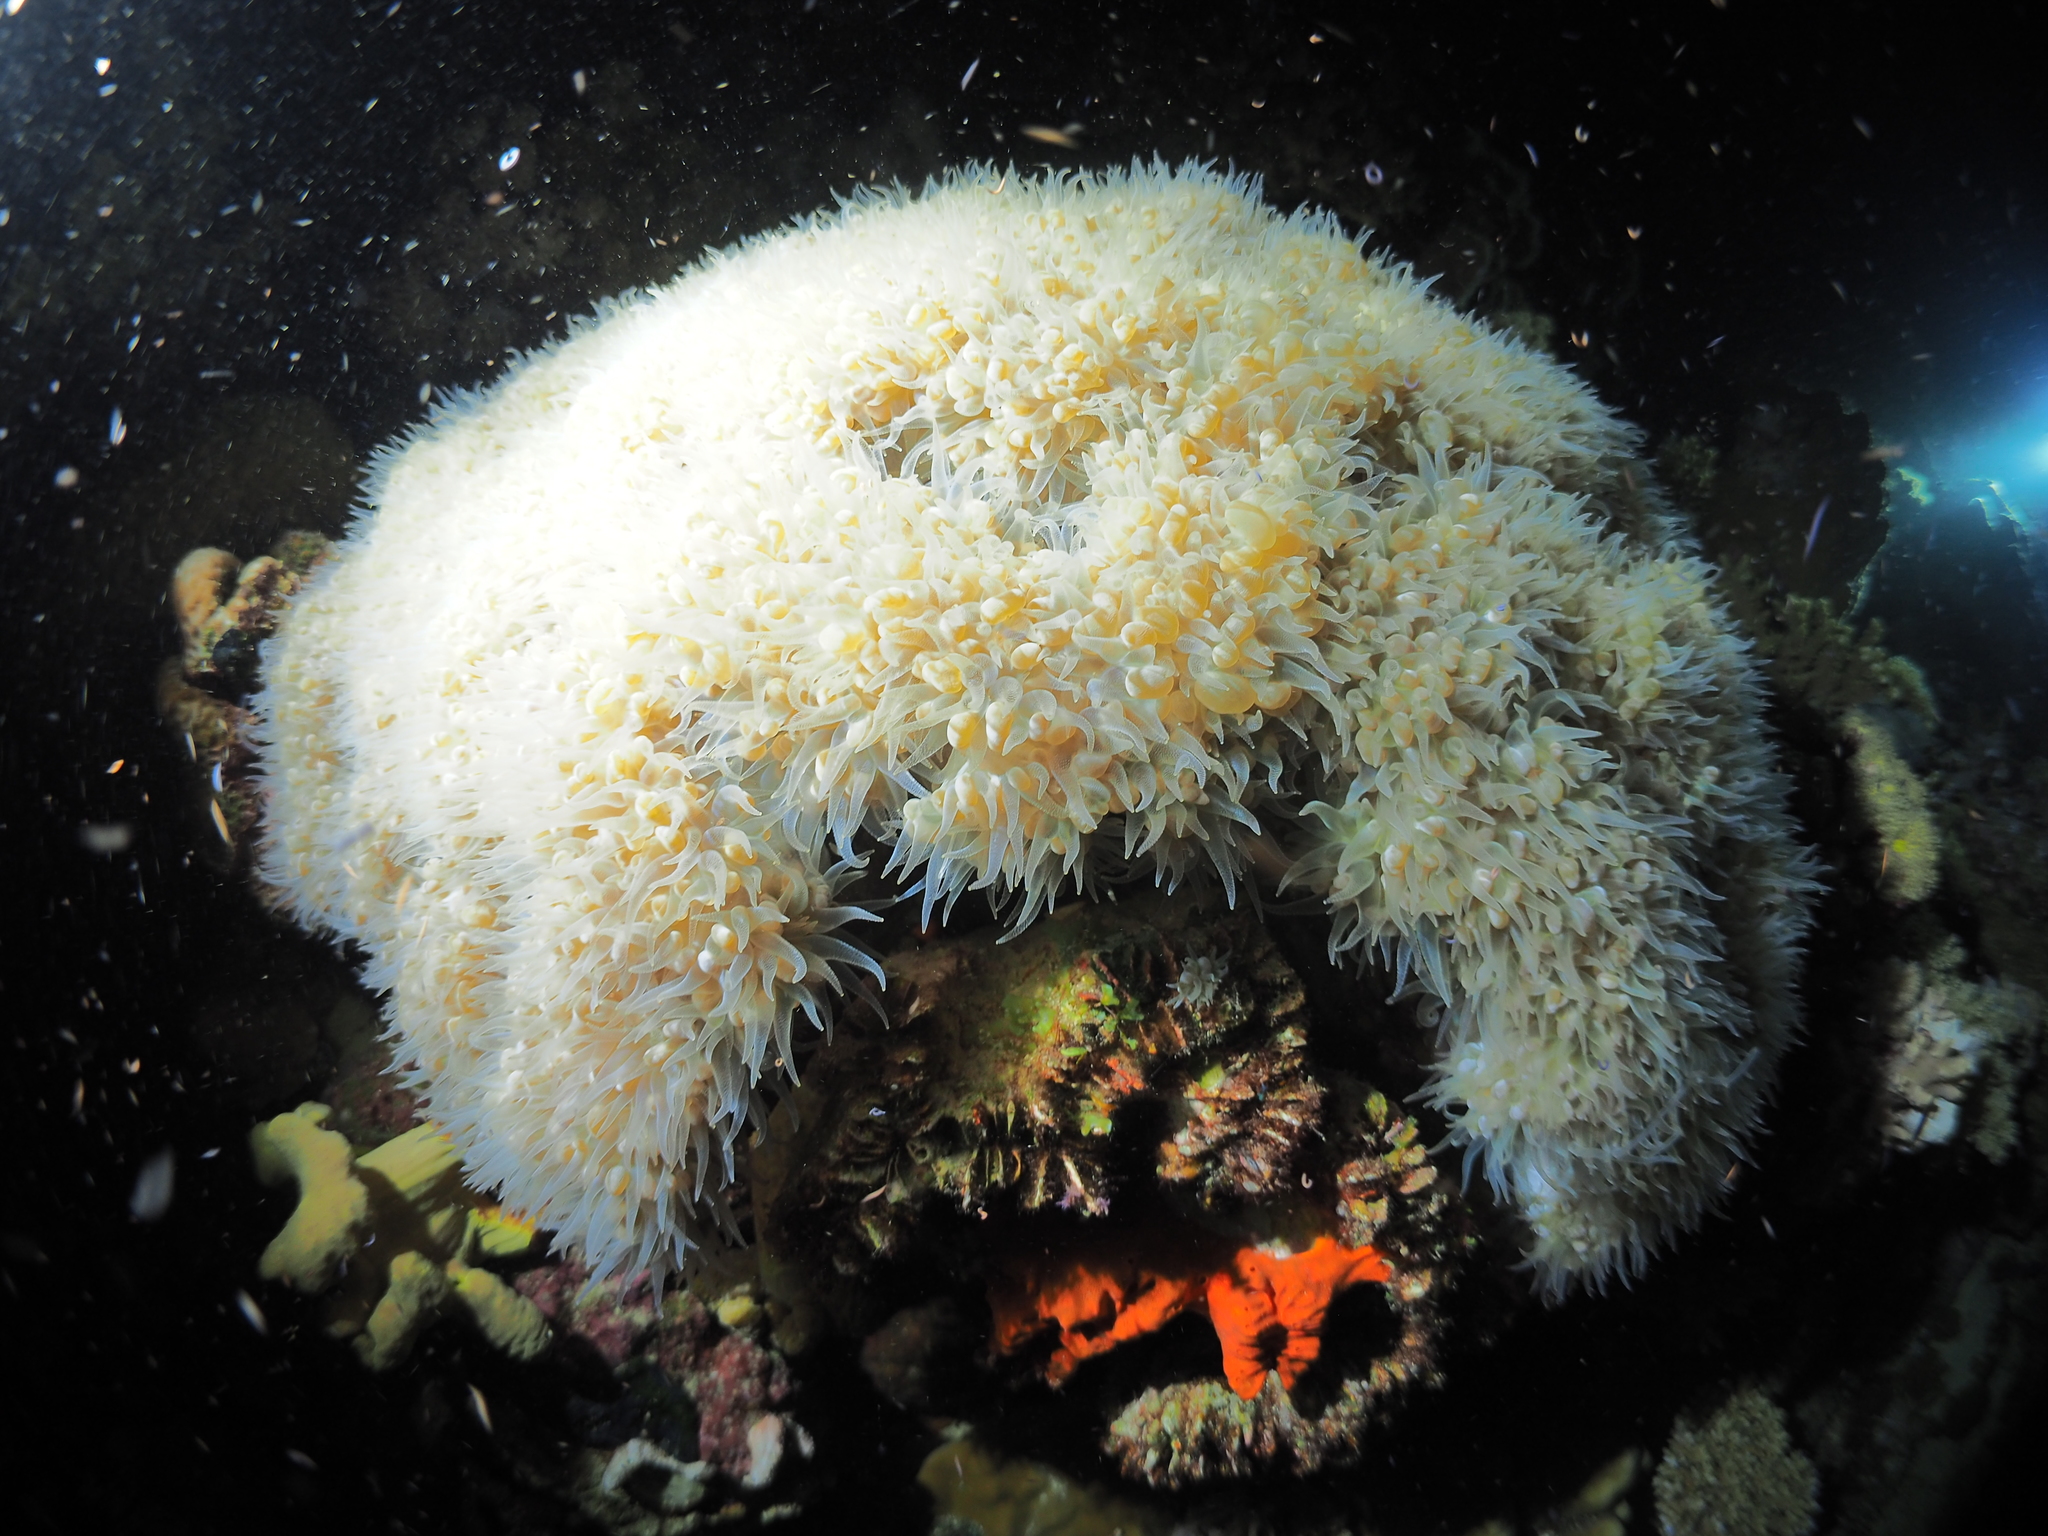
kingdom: Animalia
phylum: Cnidaria
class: Anthozoa
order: Scleractinia
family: Plerogyridae
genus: Plerogyra
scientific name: Plerogyra sinuosa
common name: Bubble coral
